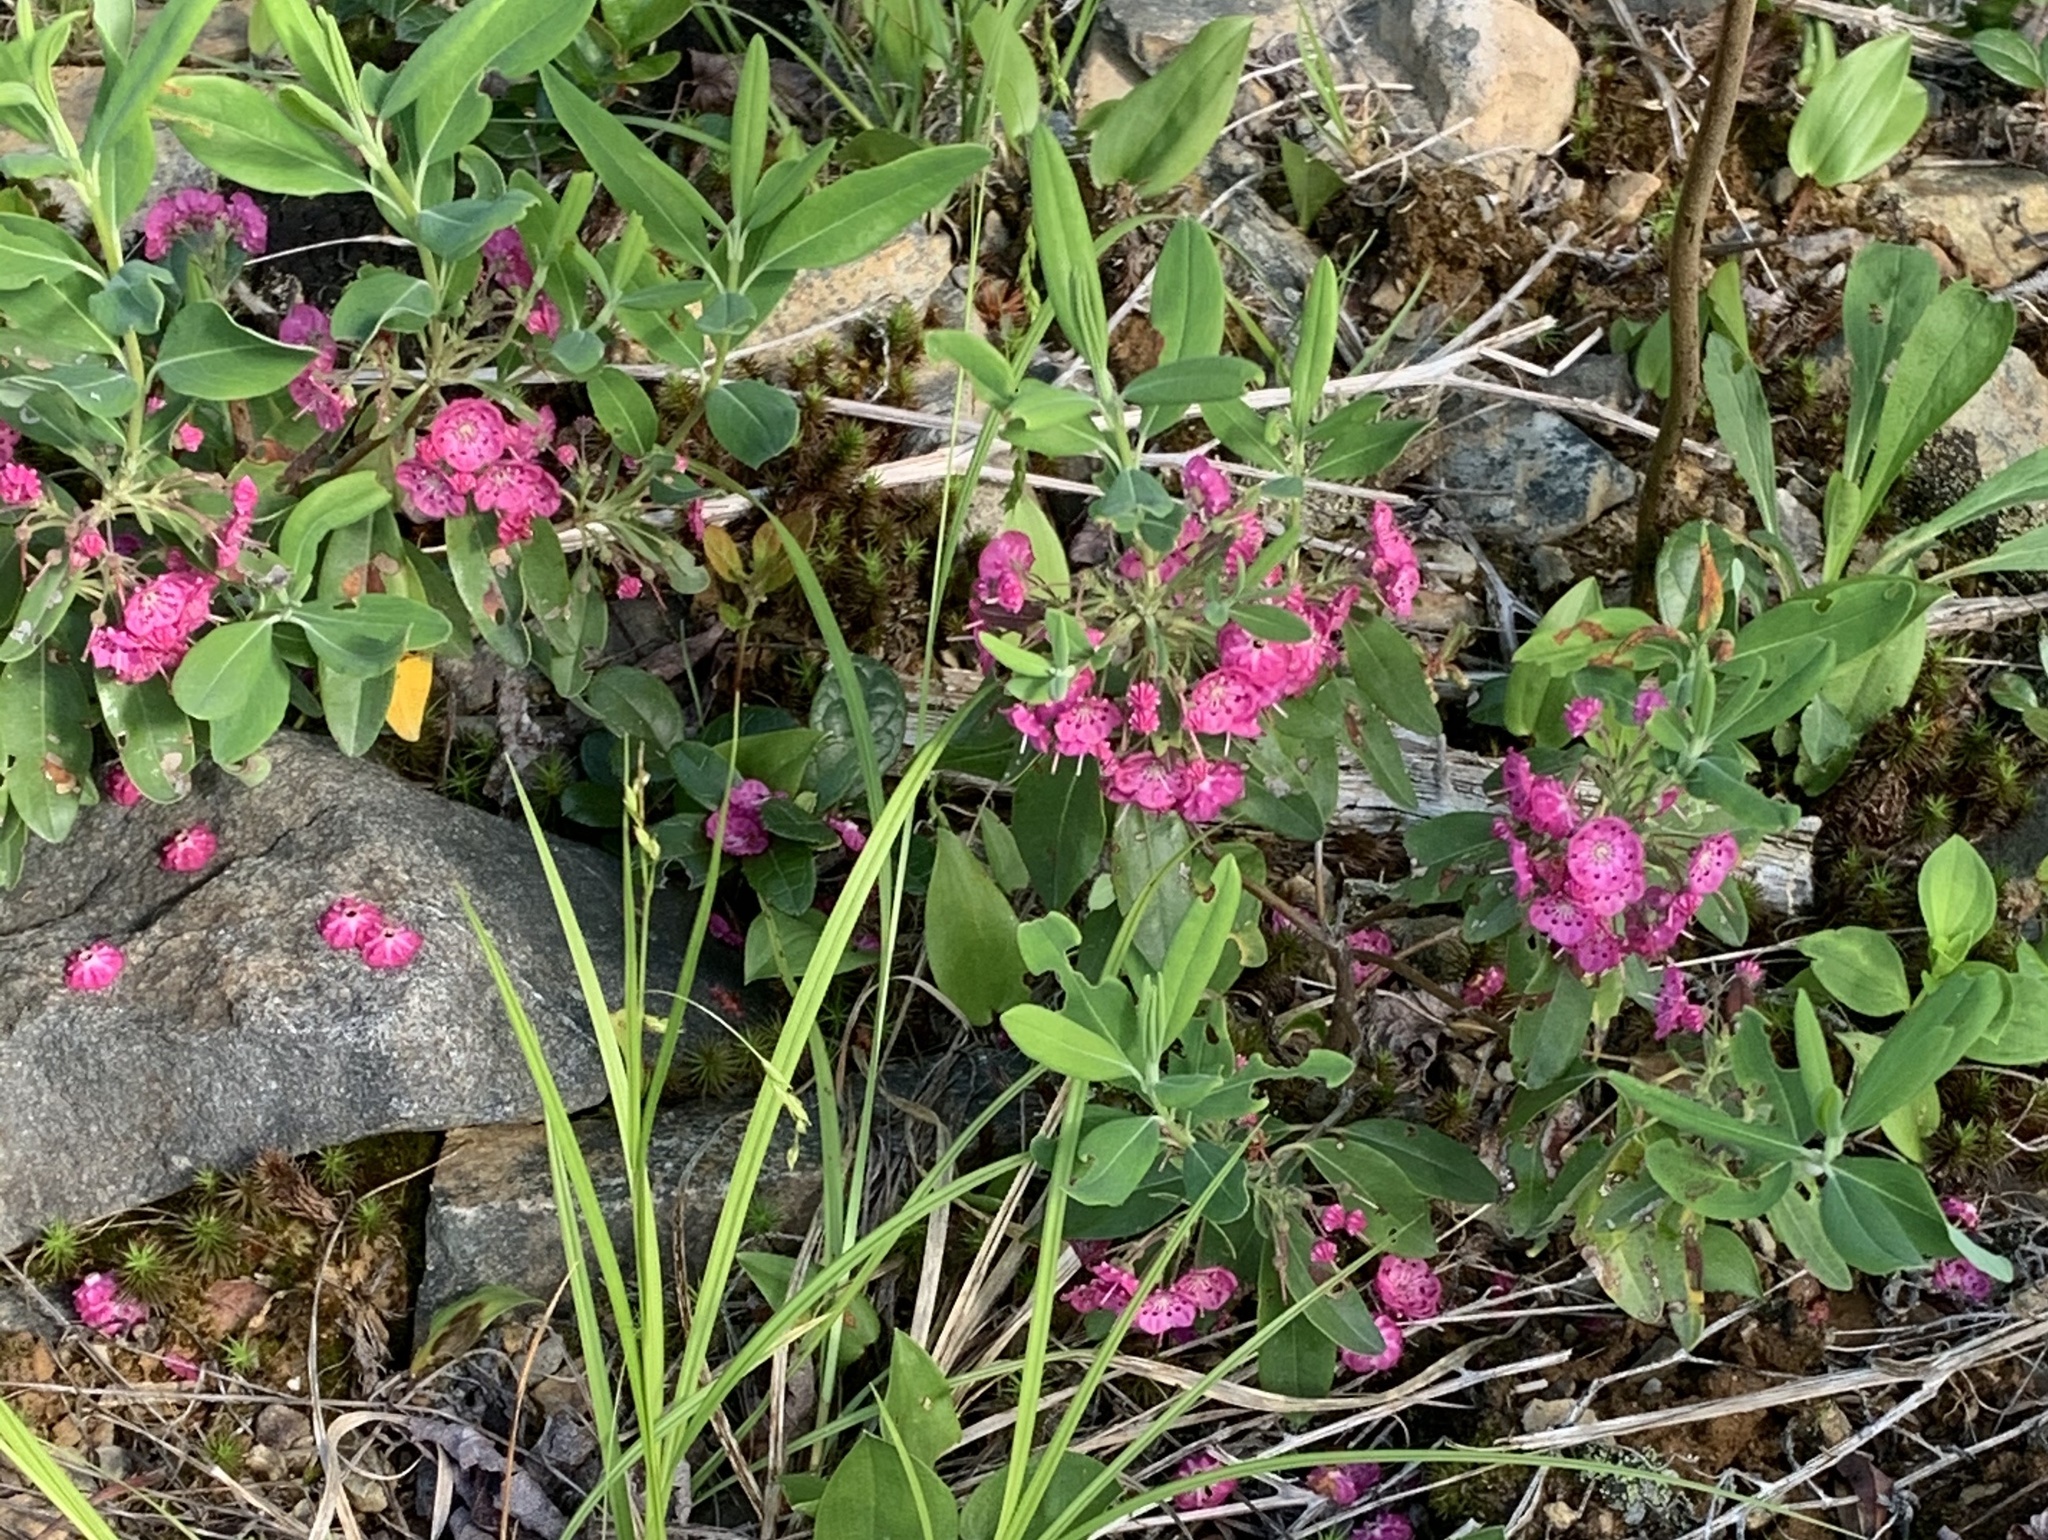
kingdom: Plantae
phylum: Tracheophyta
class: Magnoliopsida
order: Ericales
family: Ericaceae
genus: Kalmia
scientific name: Kalmia angustifolia
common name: Sheep-laurel
